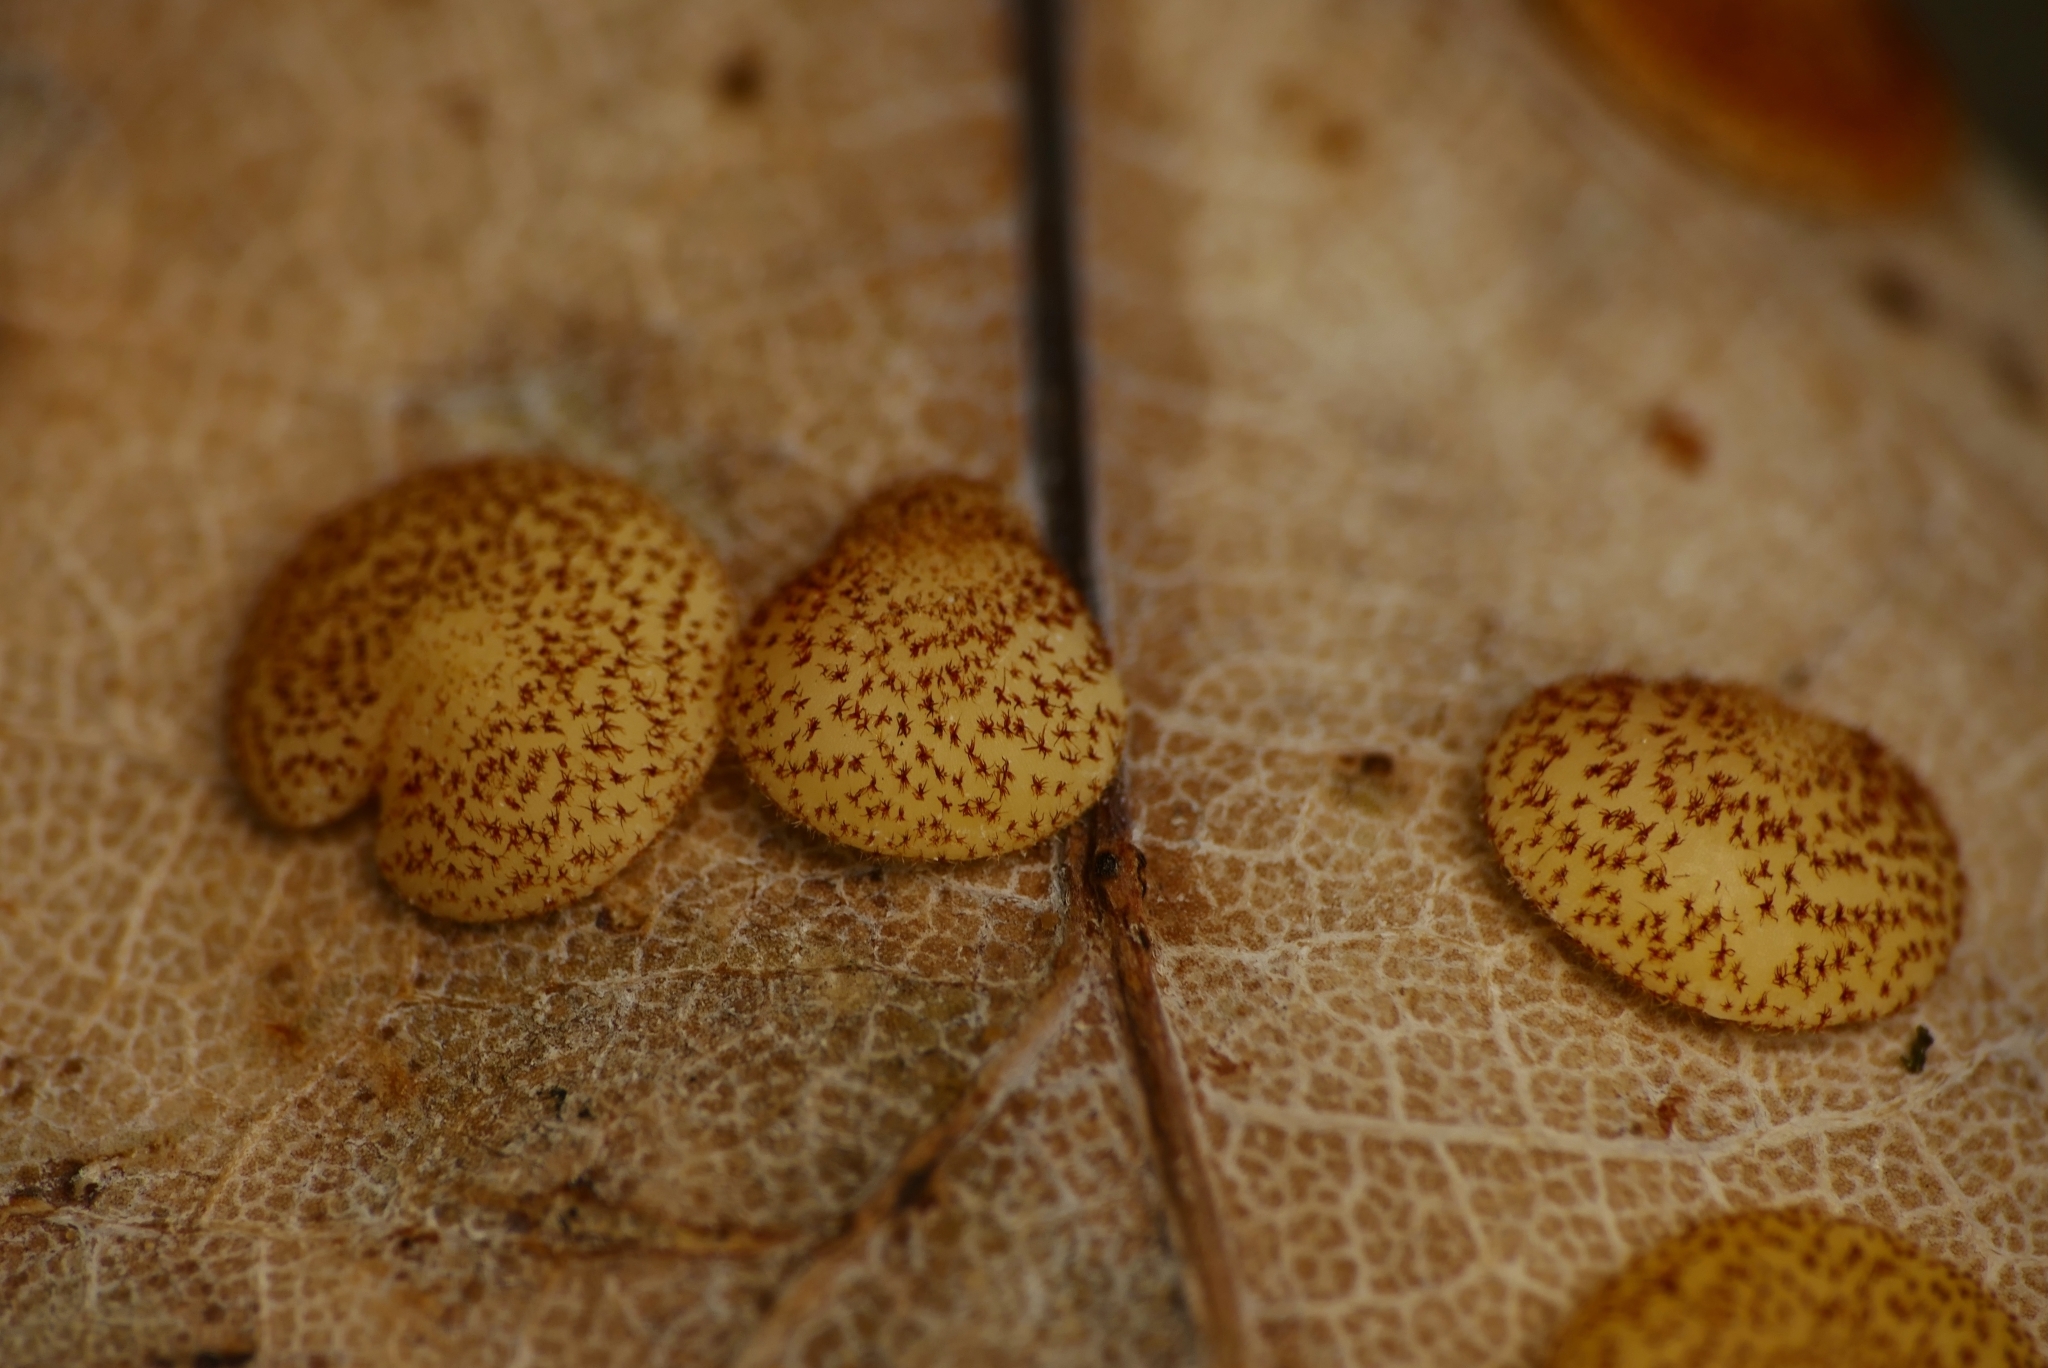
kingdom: Animalia
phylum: Arthropoda
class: Insecta
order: Hymenoptera
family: Cynipidae
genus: Neuroterus
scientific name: Neuroterus quercusbaccarum
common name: Common spangle gall
